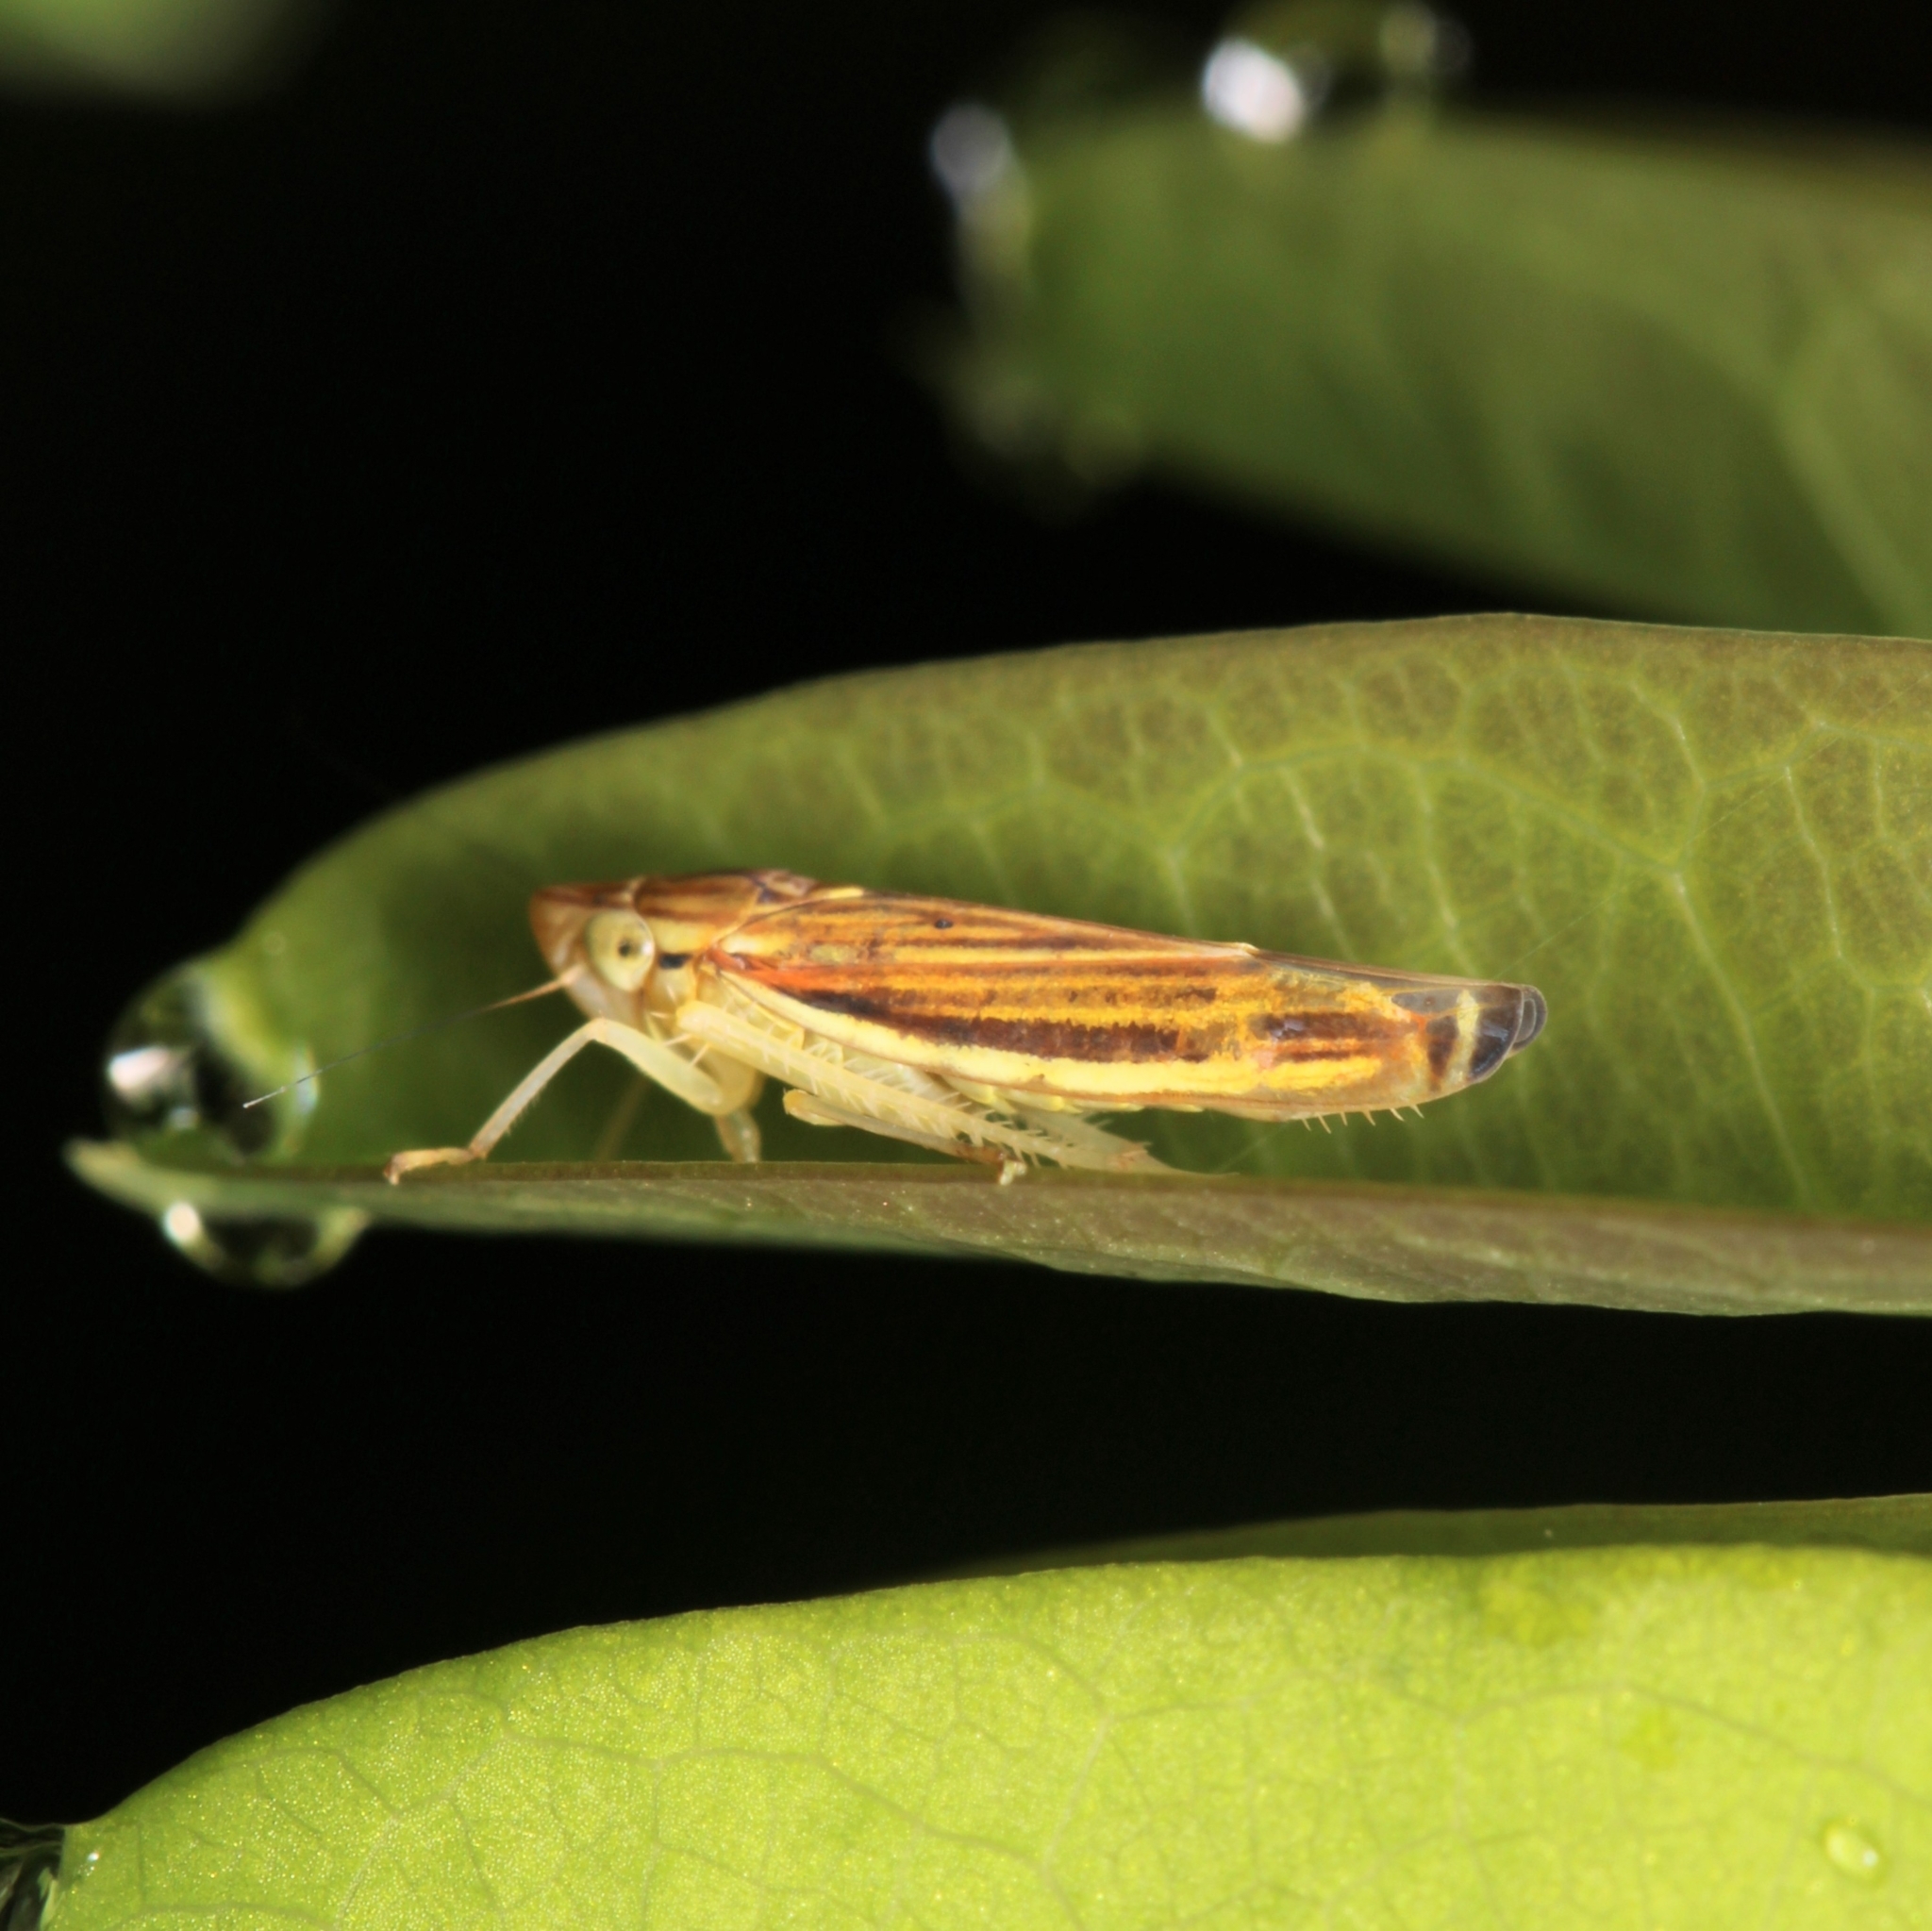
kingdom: Animalia
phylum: Arthropoda
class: Insecta
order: Hemiptera
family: Cicadellidae
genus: Sibovia
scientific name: Sibovia occatoria
